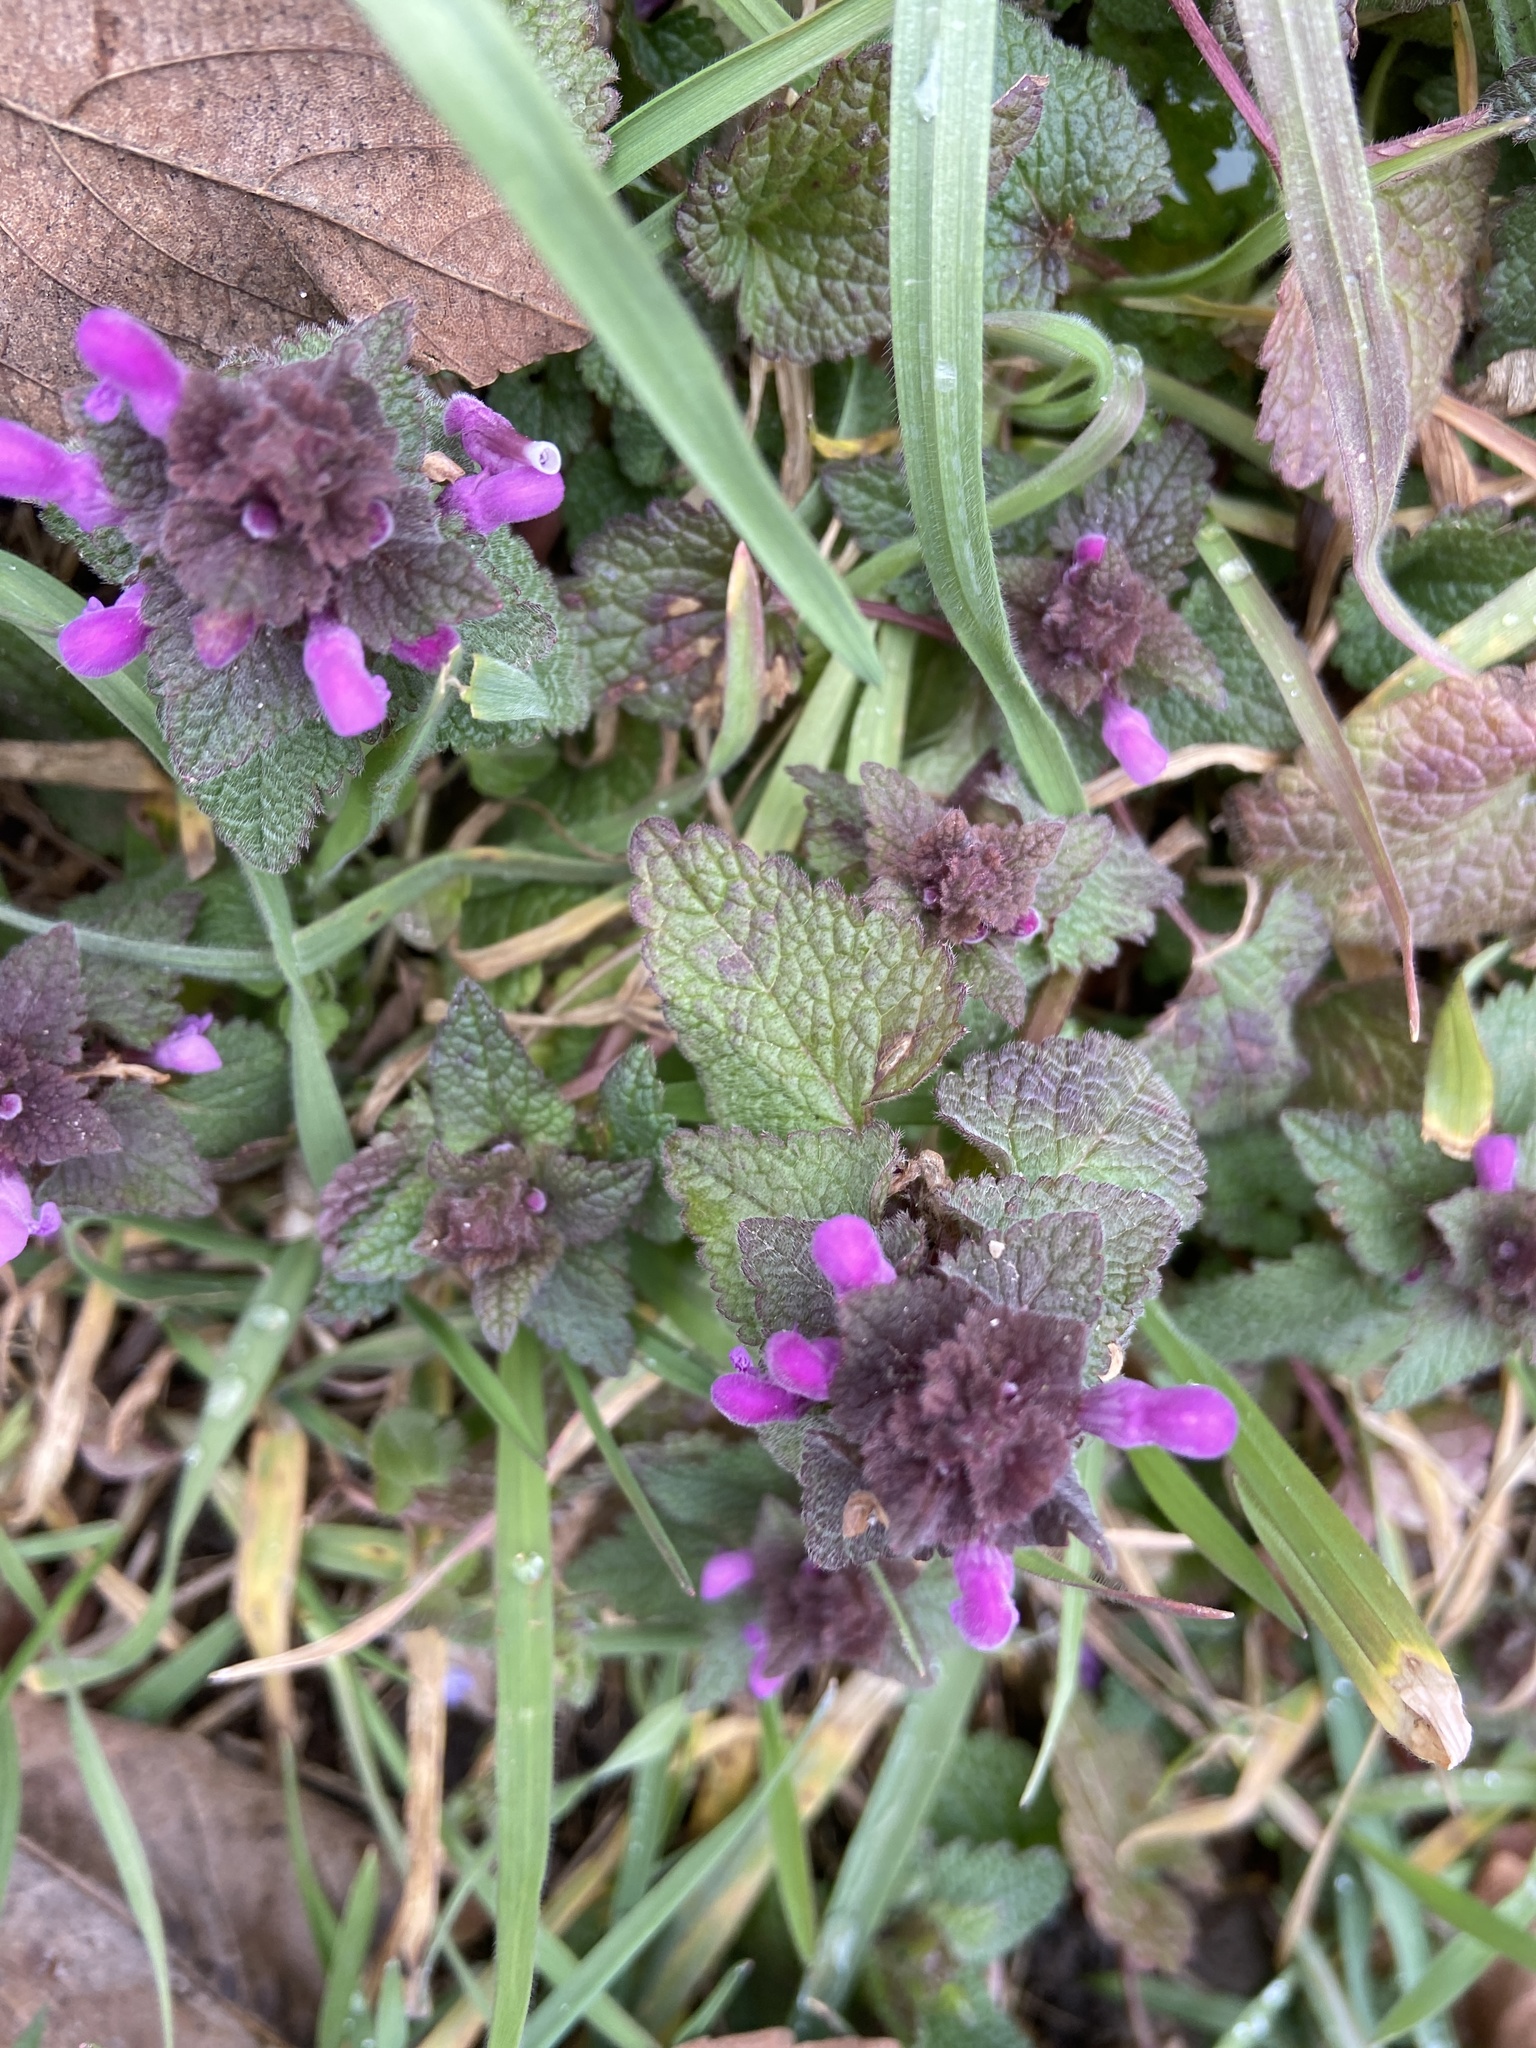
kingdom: Plantae
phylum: Tracheophyta
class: Magnoliopsida
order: Lamiales
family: Lamiaceae
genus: Lamium
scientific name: Lamium purpureum
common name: Red dead-nettle
